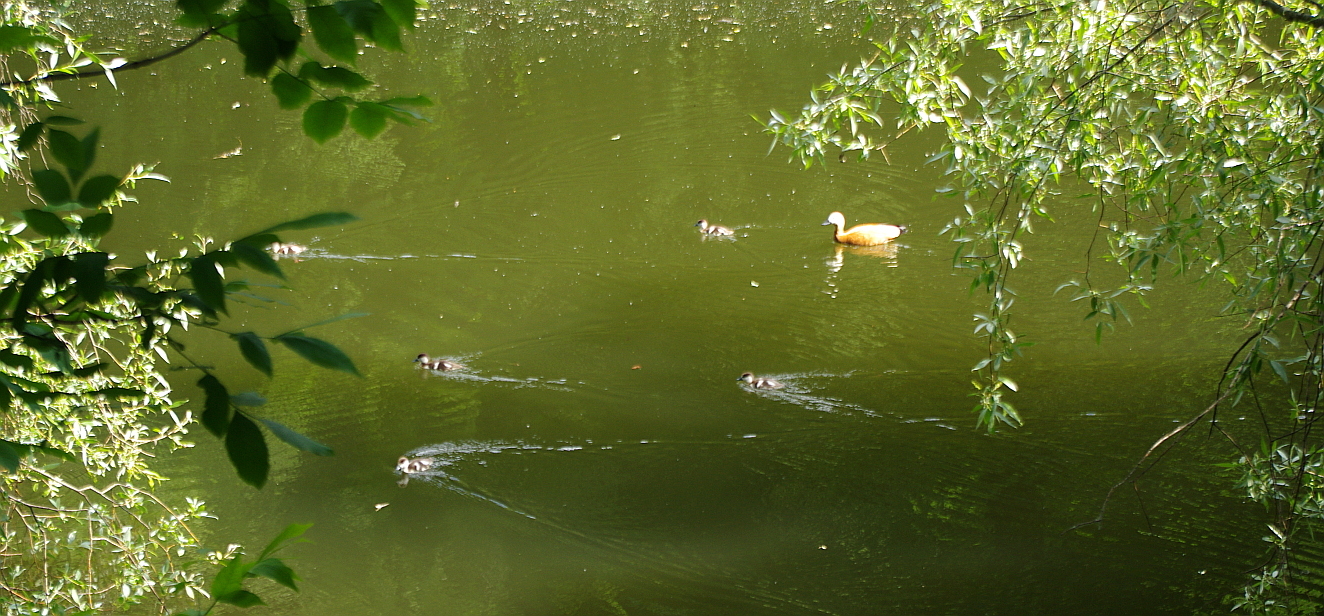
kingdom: Animalia
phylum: Chordata
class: Aves
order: Anseriformes
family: Anatidae
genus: Tadorna
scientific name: Tadorna ferruginea
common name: Ruddy shelduck
